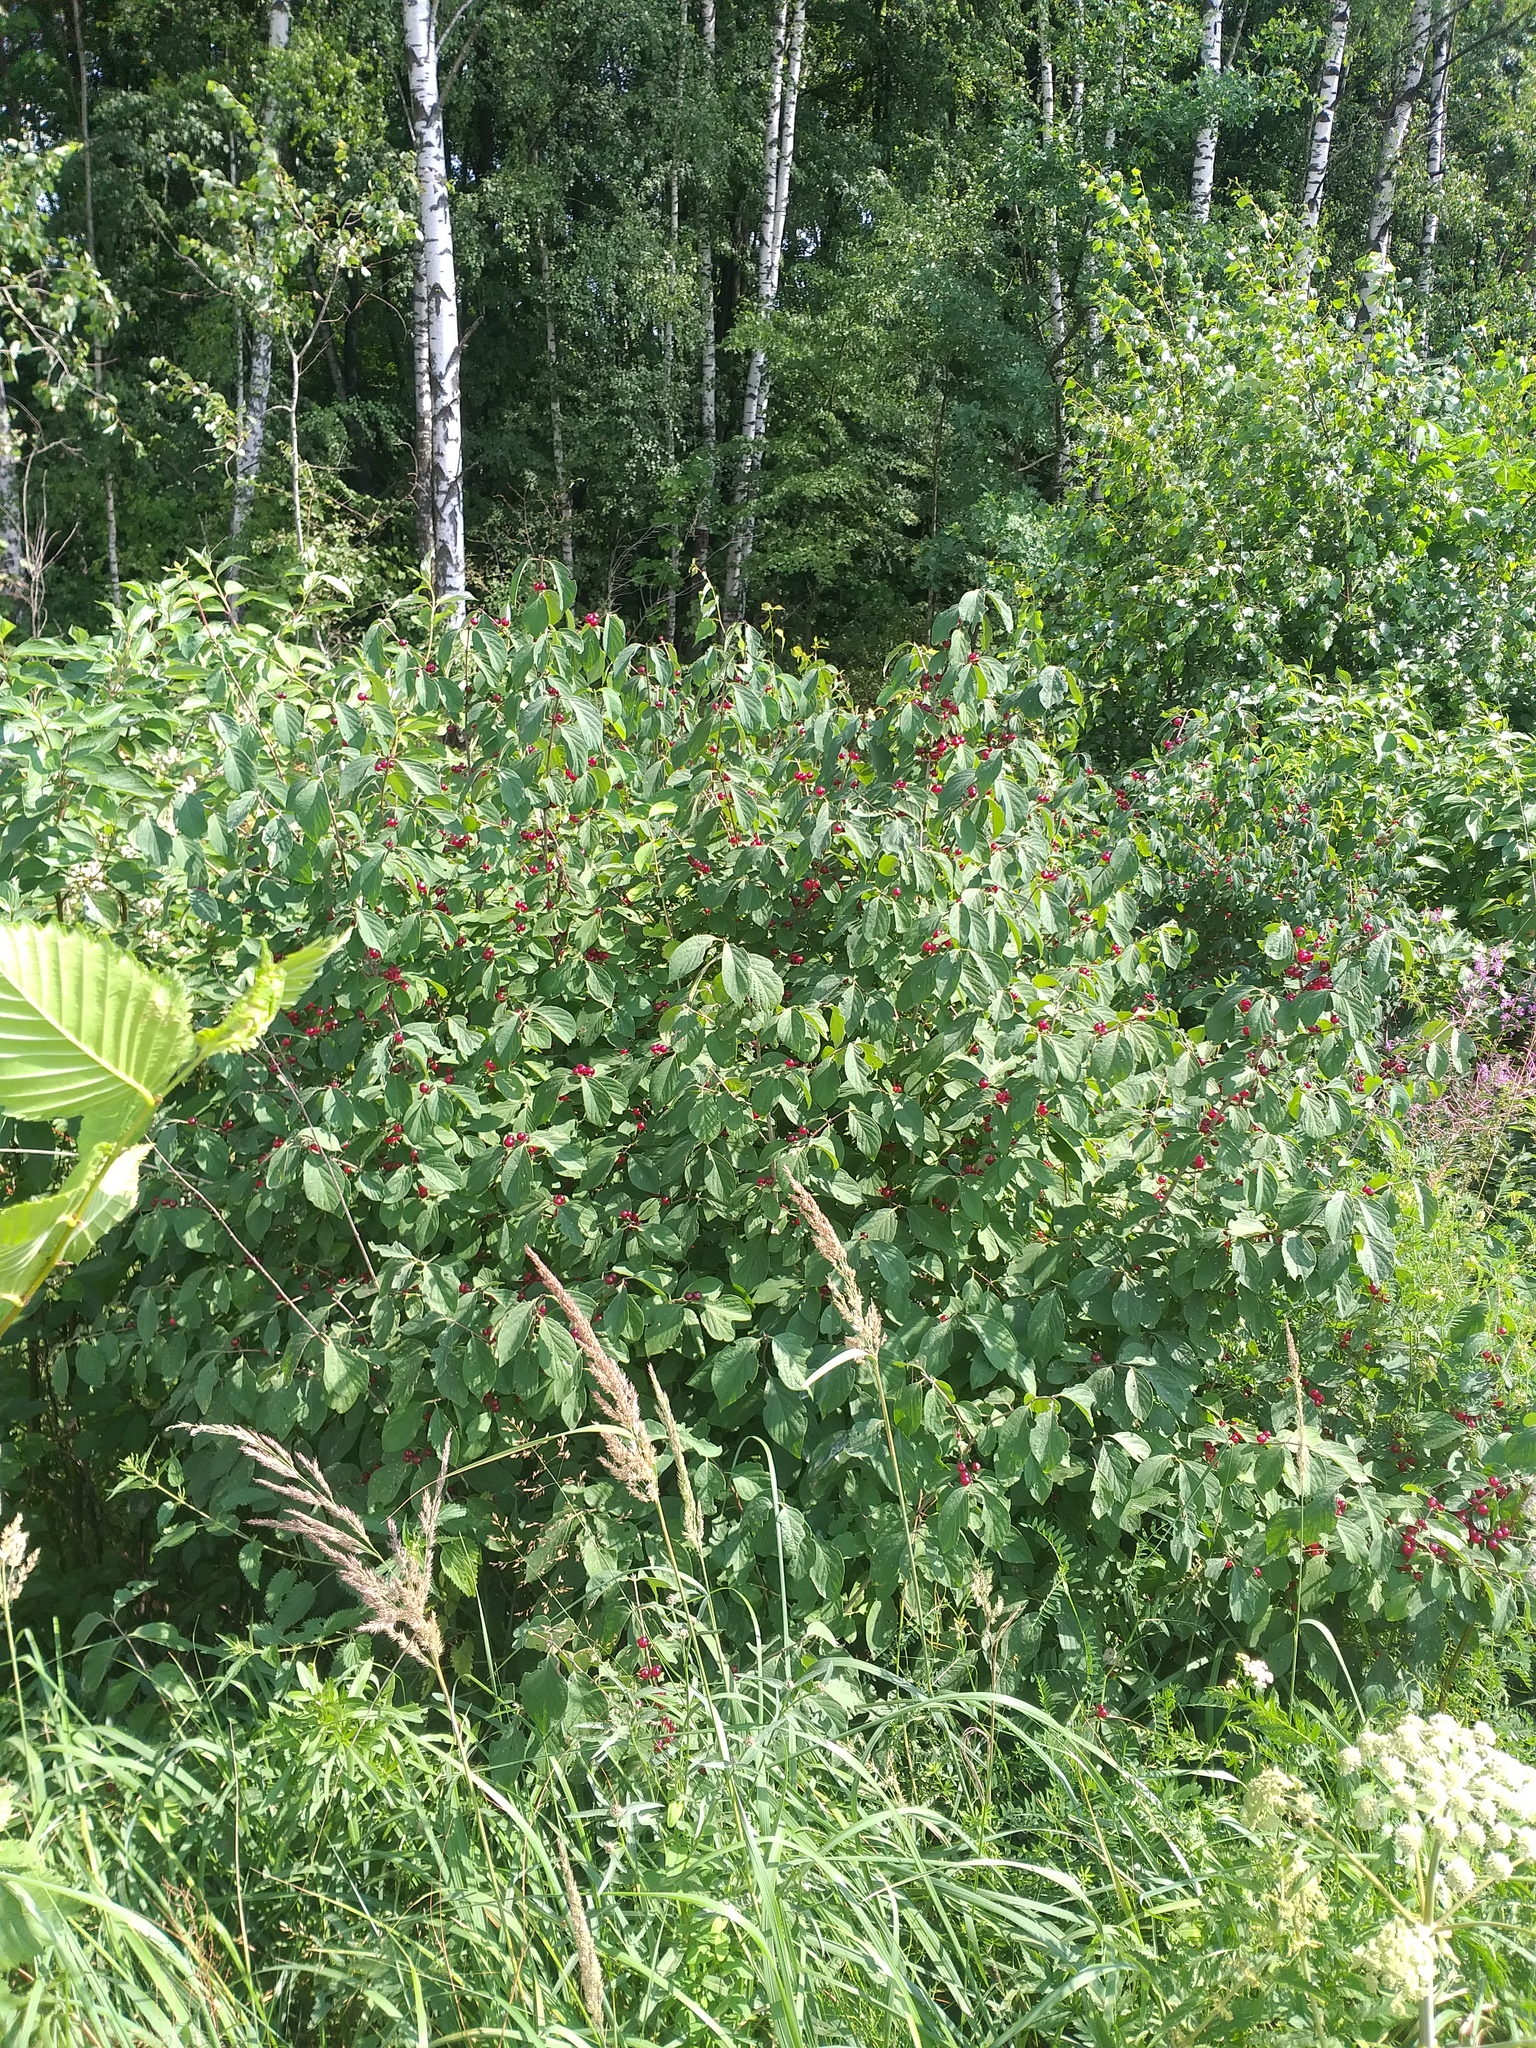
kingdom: Plantae
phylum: Tracheophyta
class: Magnoliopsida
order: Dipsacales
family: Caprifoliaceae
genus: Lonicera
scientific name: Lonicera xylosteum
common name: Fly honeysuckle
